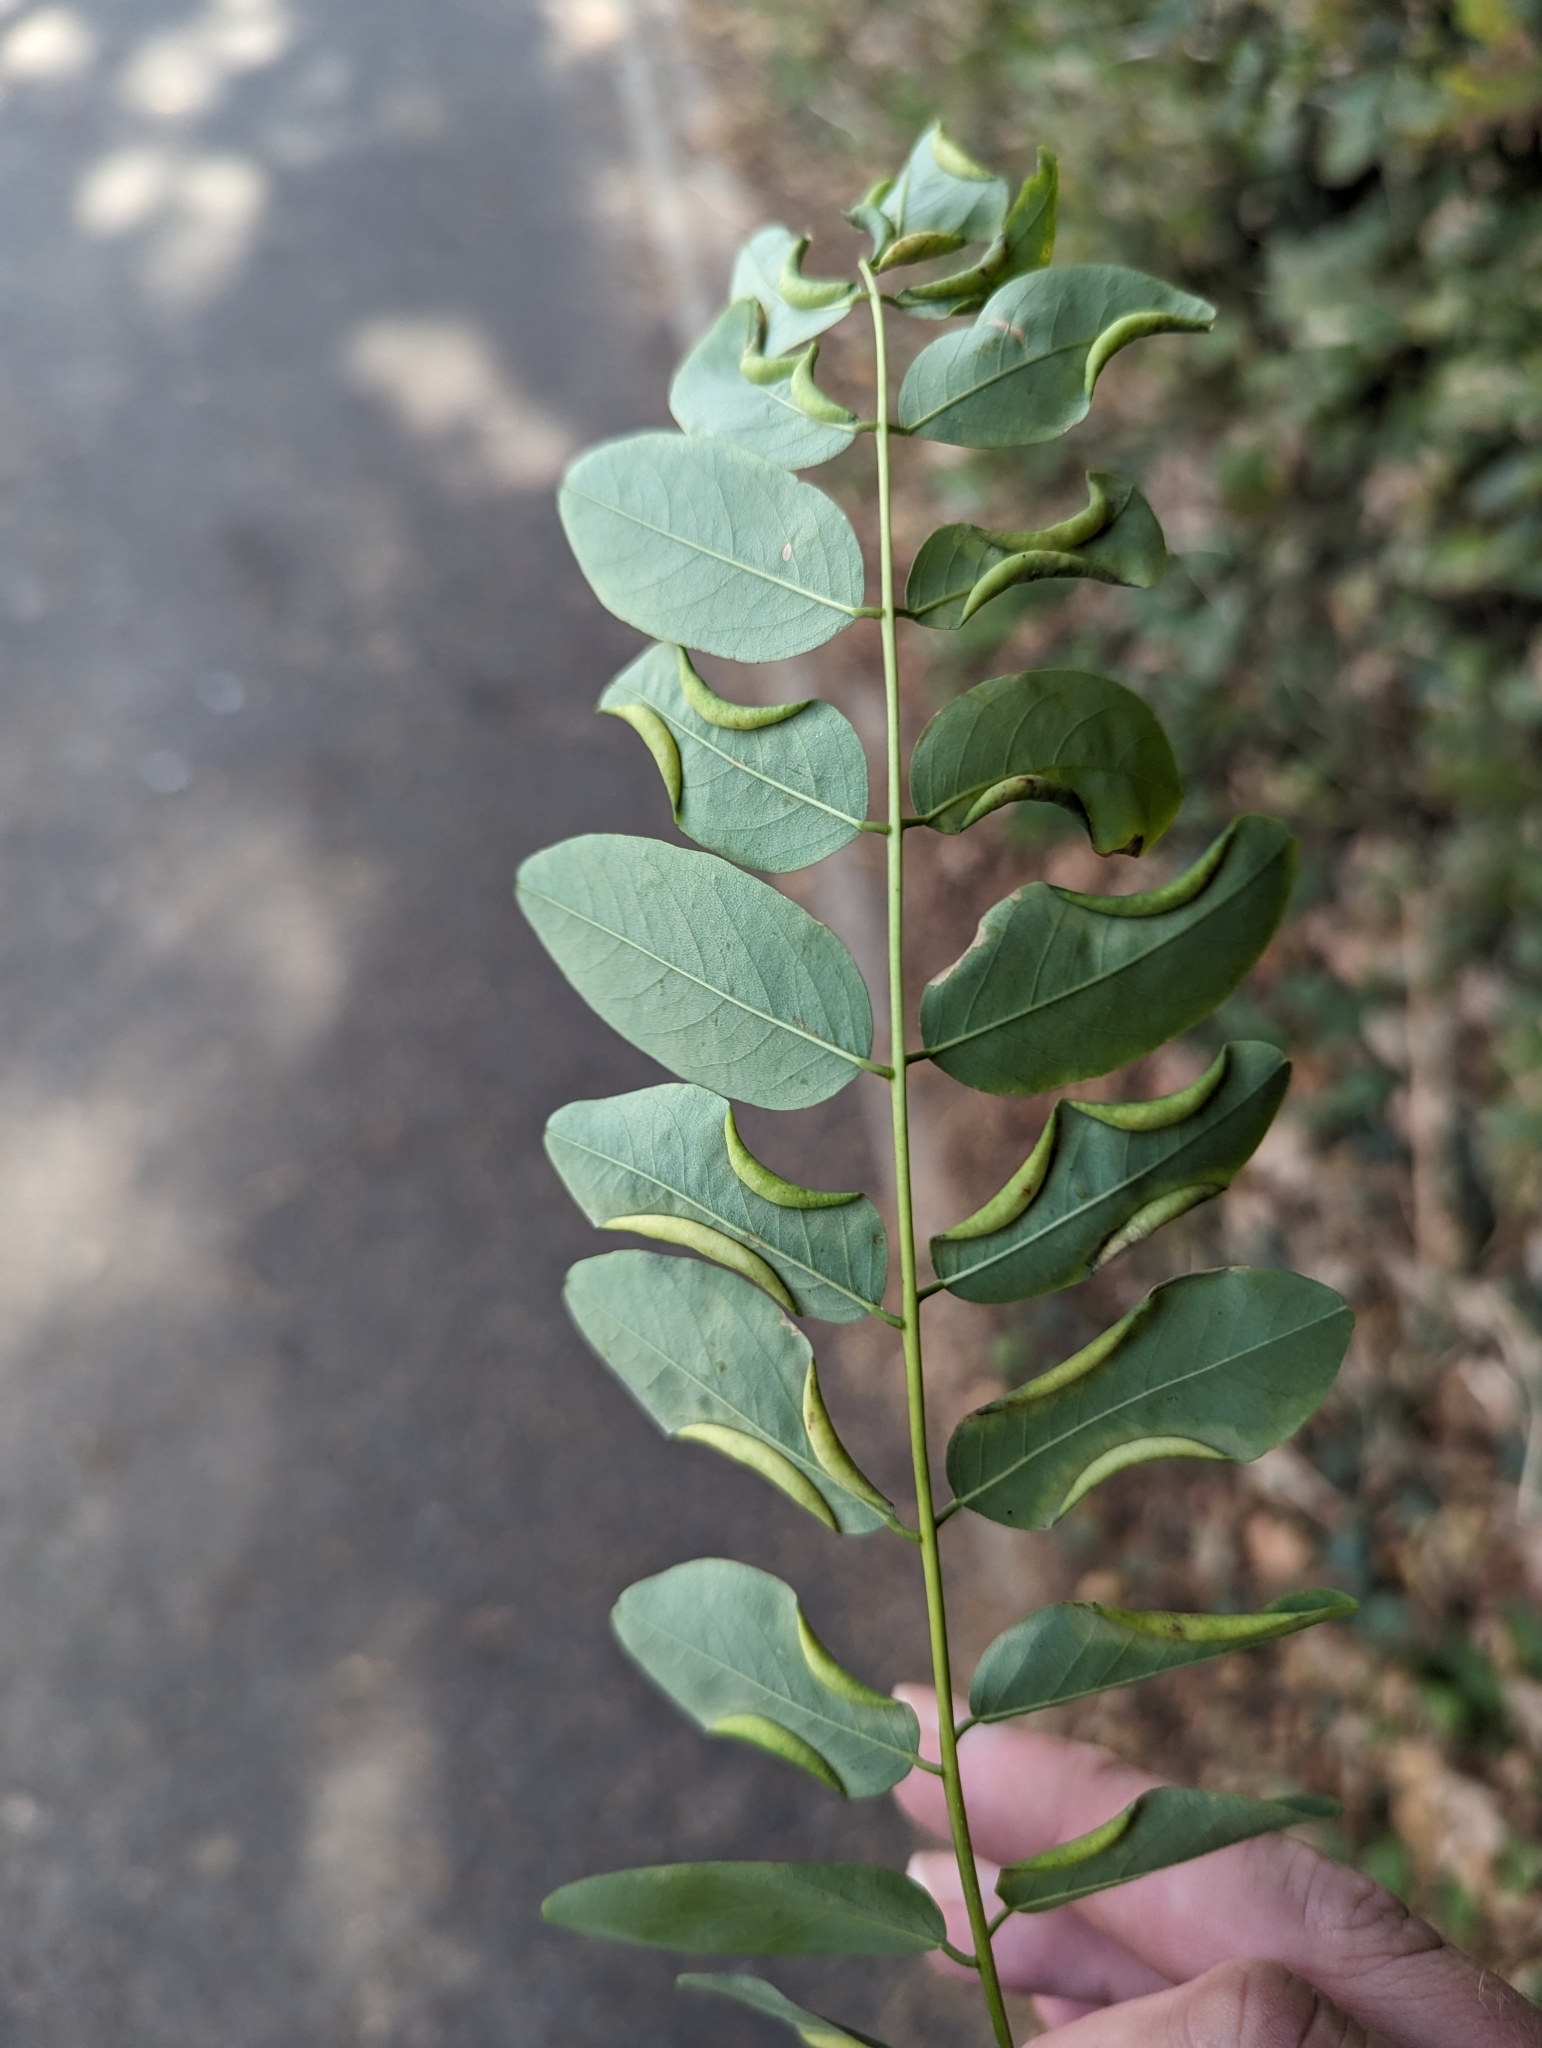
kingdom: Animalia
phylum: Arthropoda
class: Insecta
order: Diptera
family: Cecidomyiidae
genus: Obolodiplosis
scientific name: Obolodiplosis robiniae
